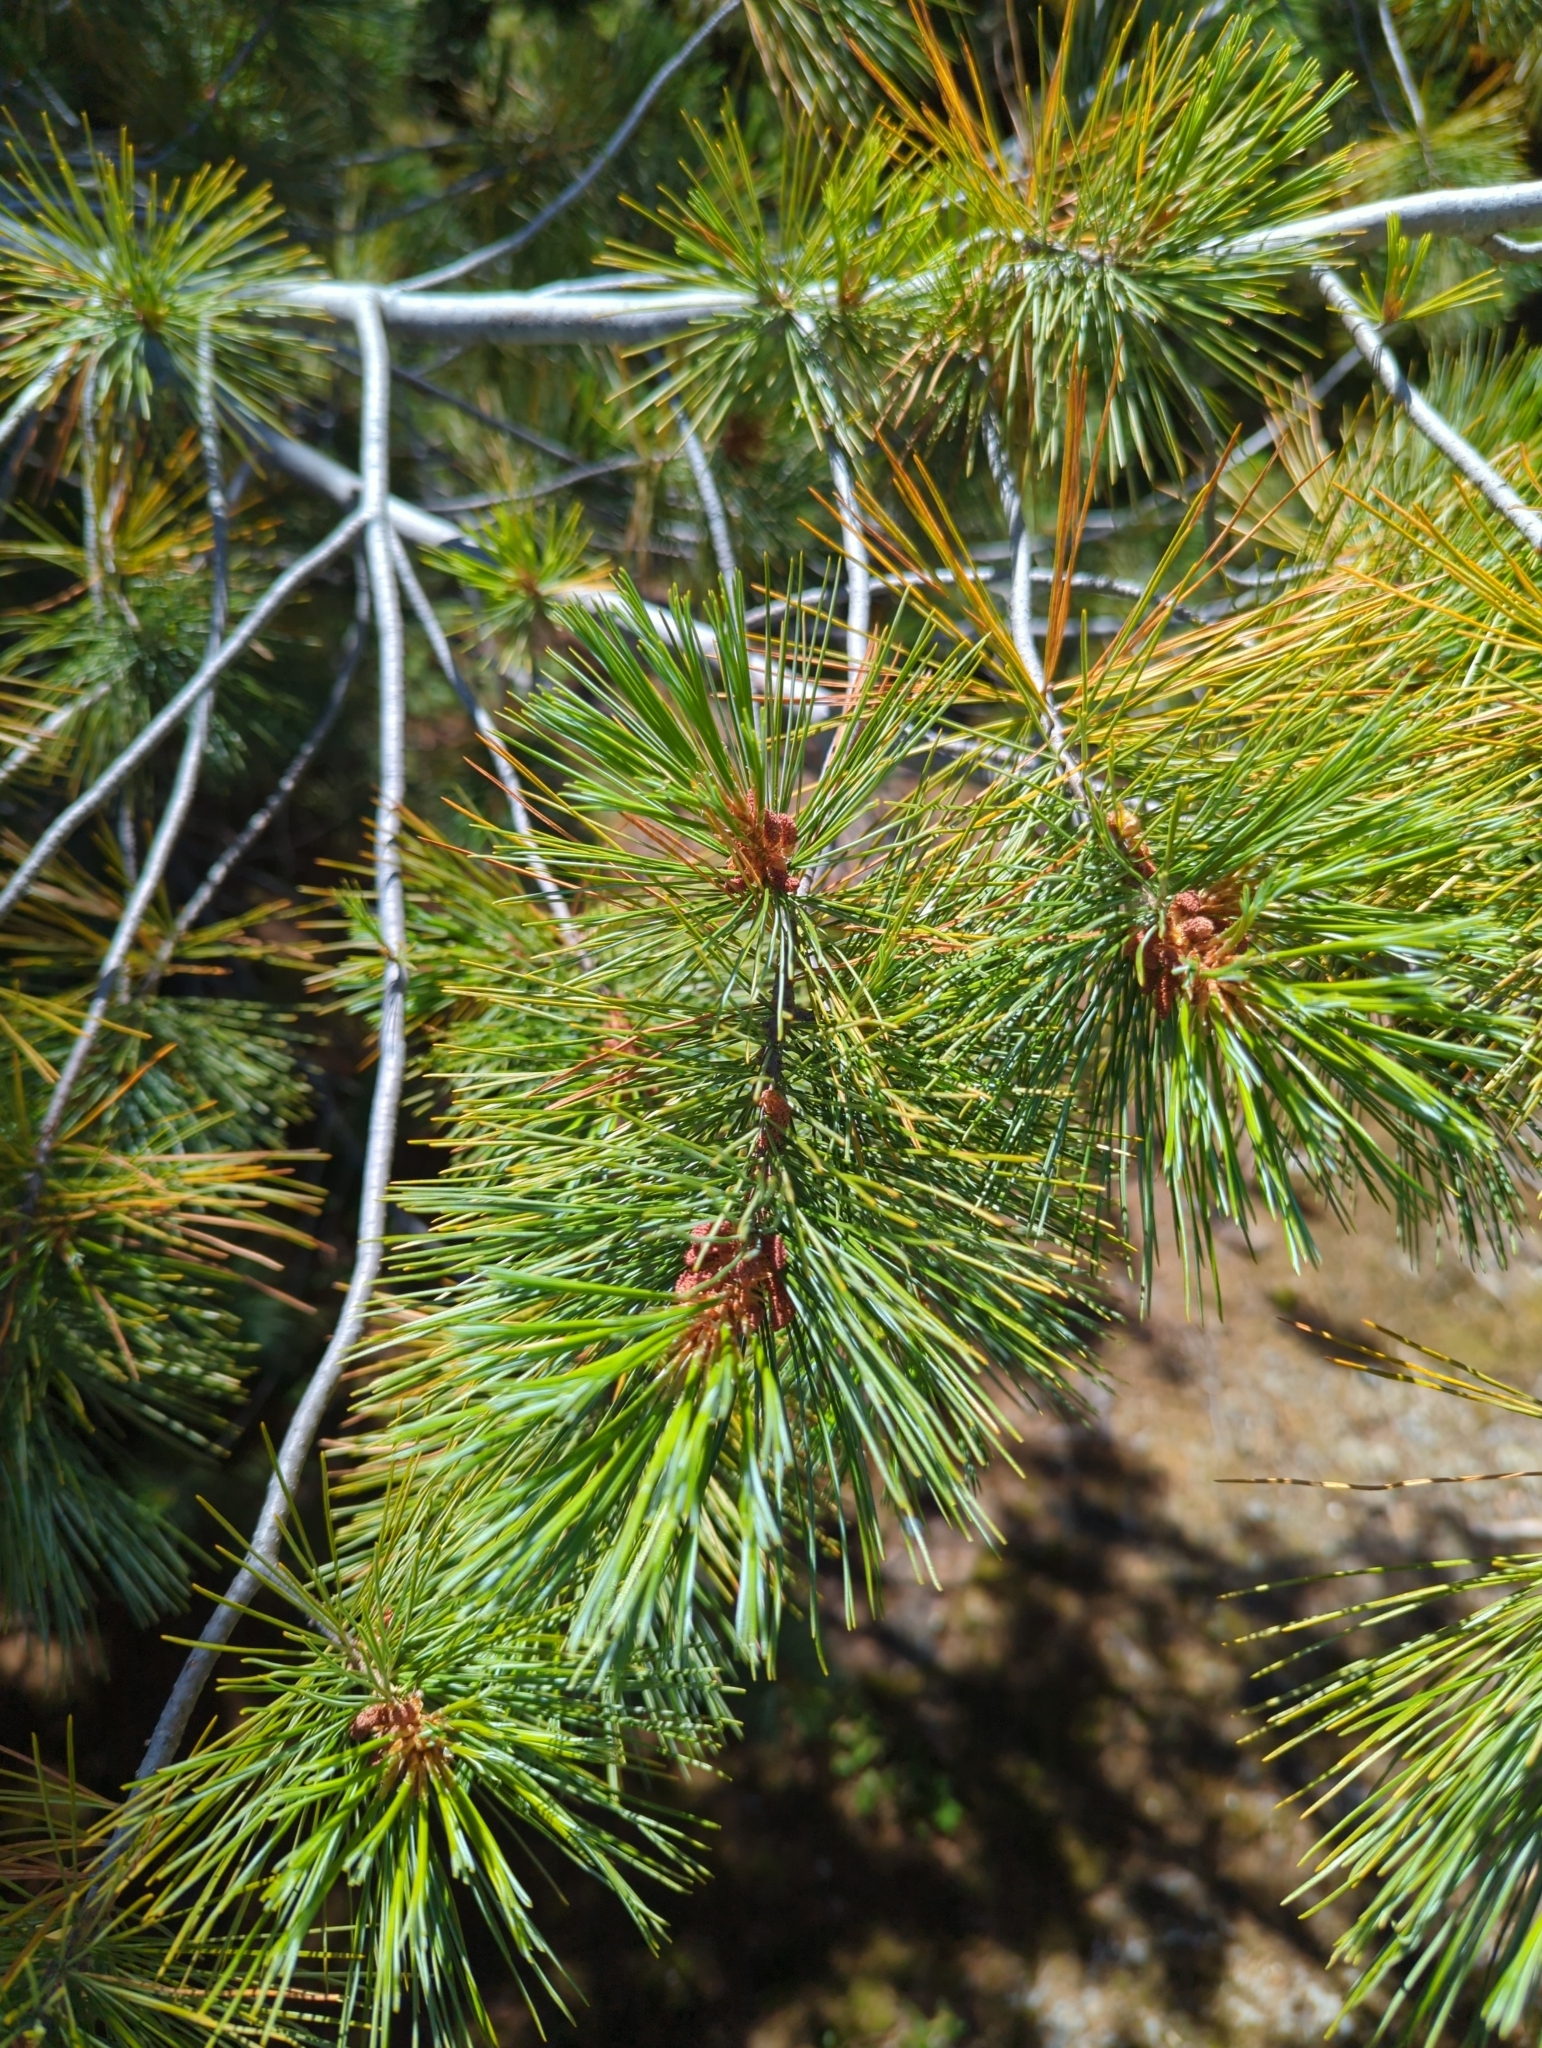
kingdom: Plantae
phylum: Tracheophyta
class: Pinopsida
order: Pinales
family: Pinaceae
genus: Pinus
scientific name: Pinus monticola
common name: Western white pine
